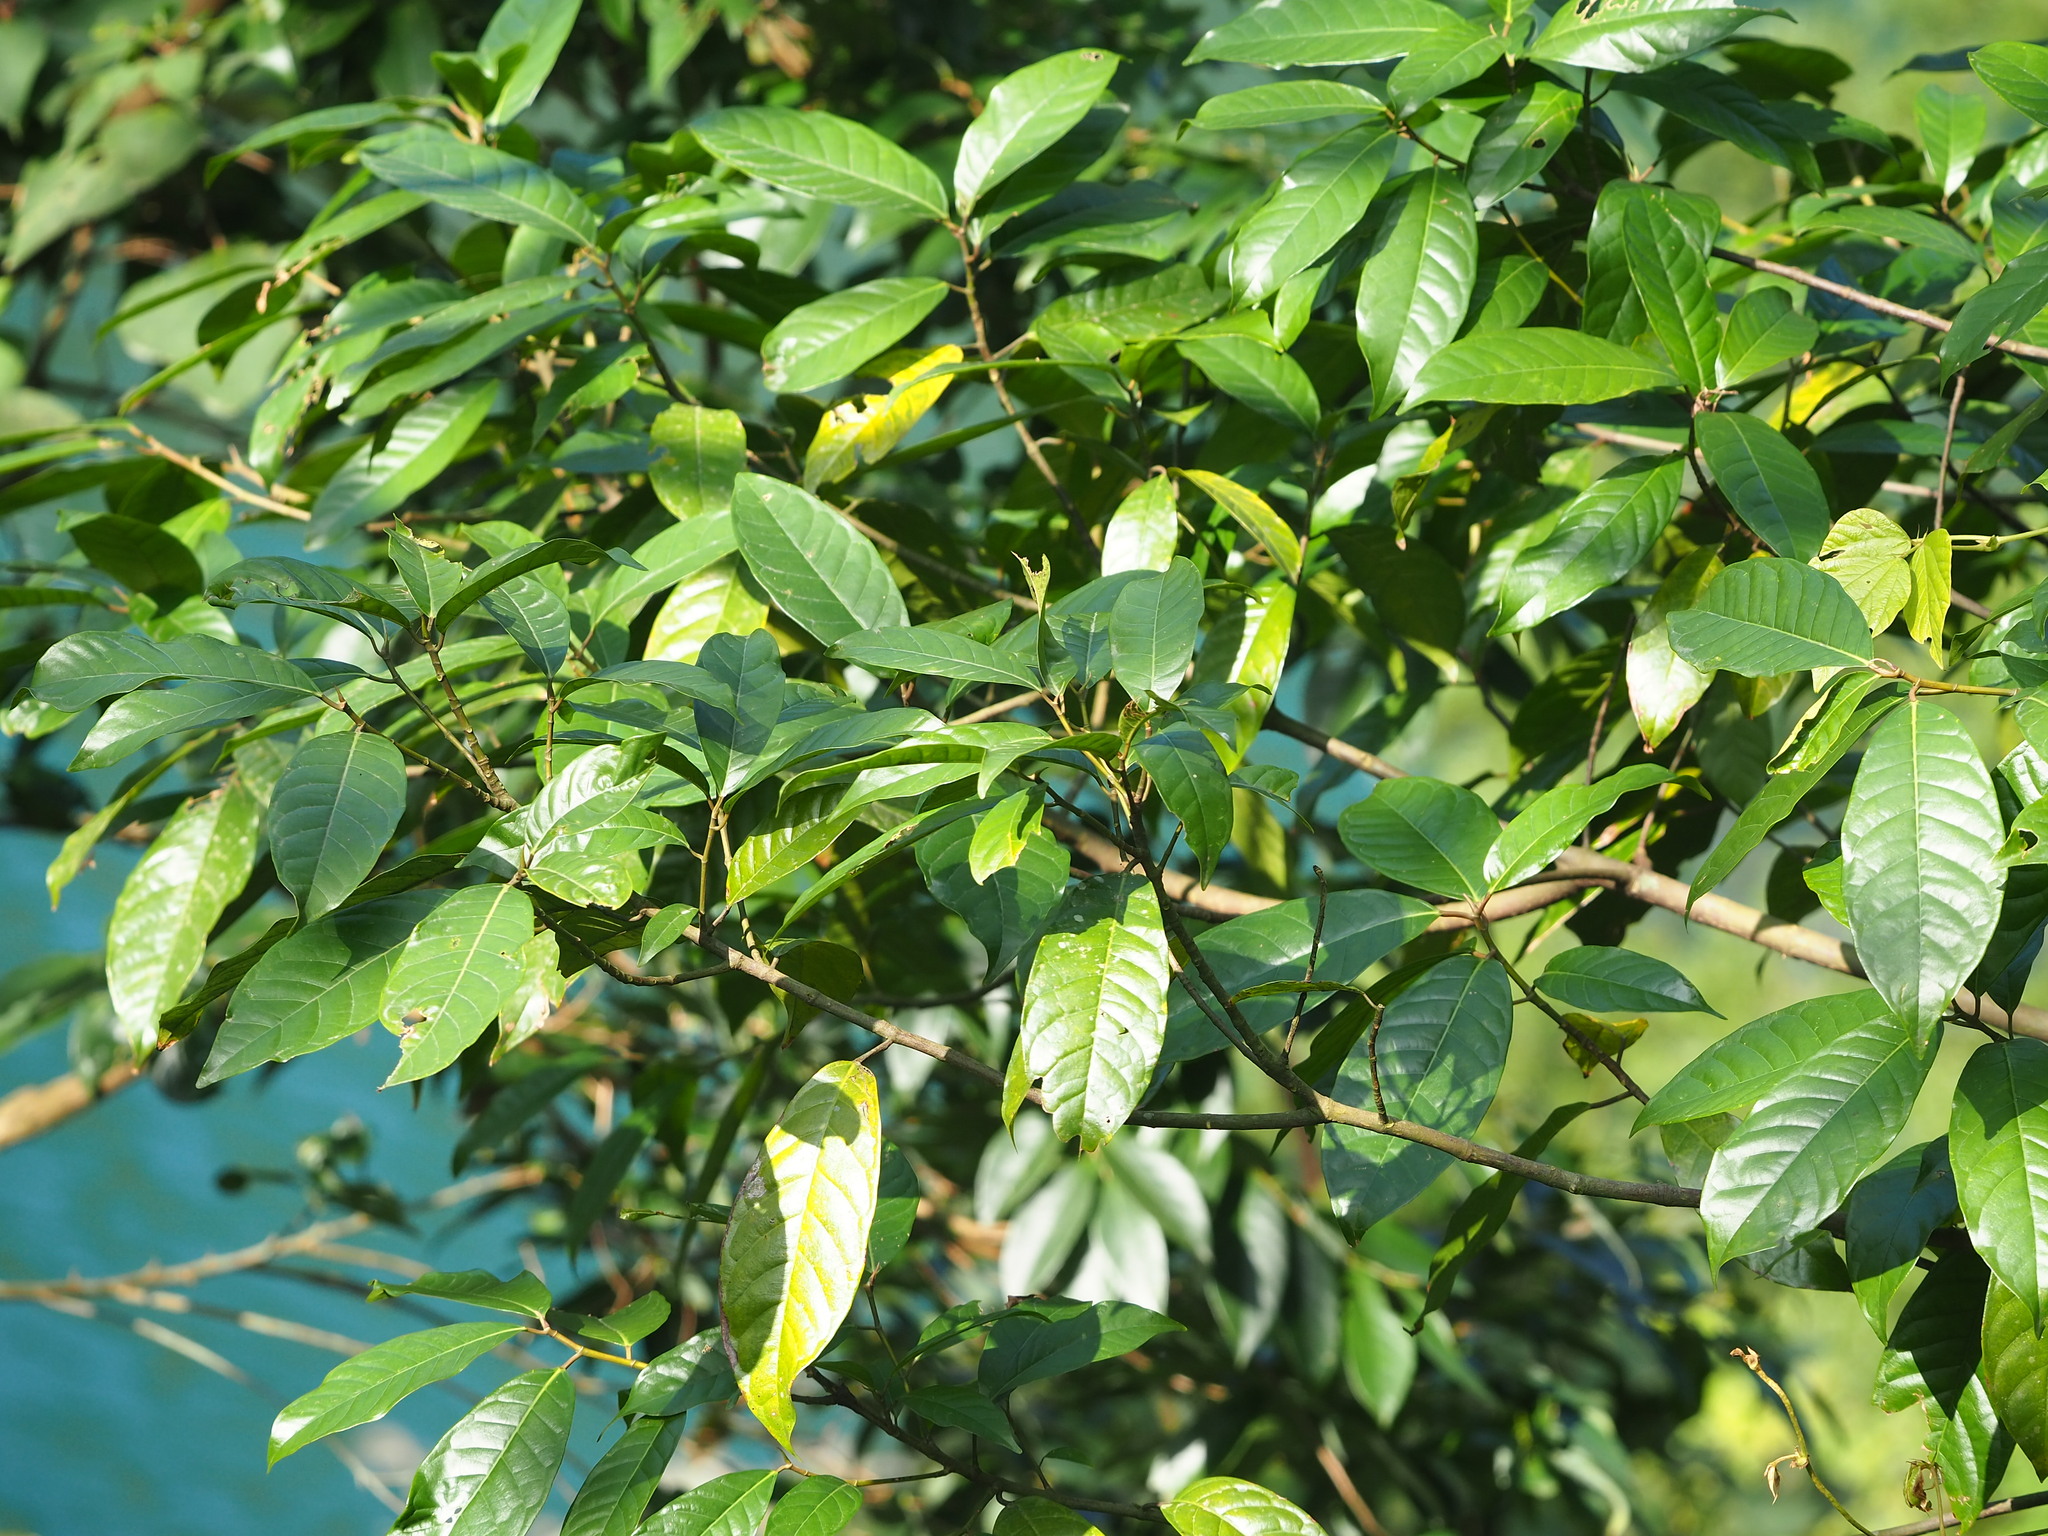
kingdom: Plantae
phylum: Tracheophyta
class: Magnoliopsida
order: Rosales
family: Moraceae
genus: Ficus
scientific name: Ficus nervosa
